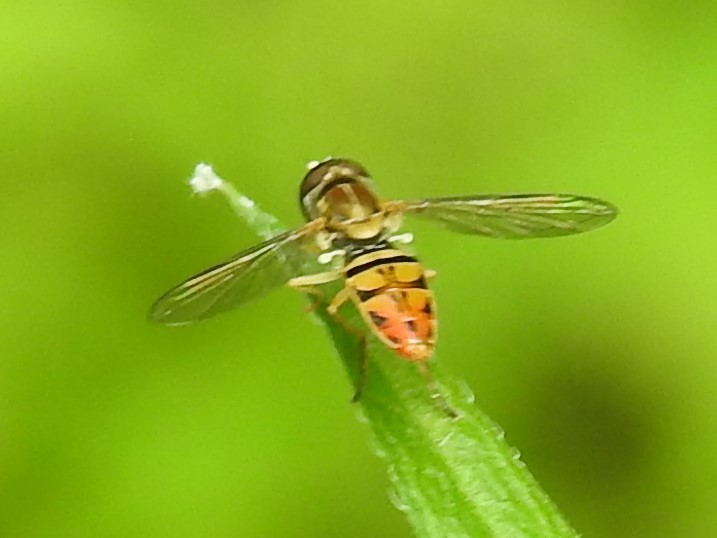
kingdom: Animalia
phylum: Arthropoda
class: Insecta
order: Diptera
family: Syrphidae
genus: Toxomerus
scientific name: Toxomerus marginatus
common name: Syrphid fly
